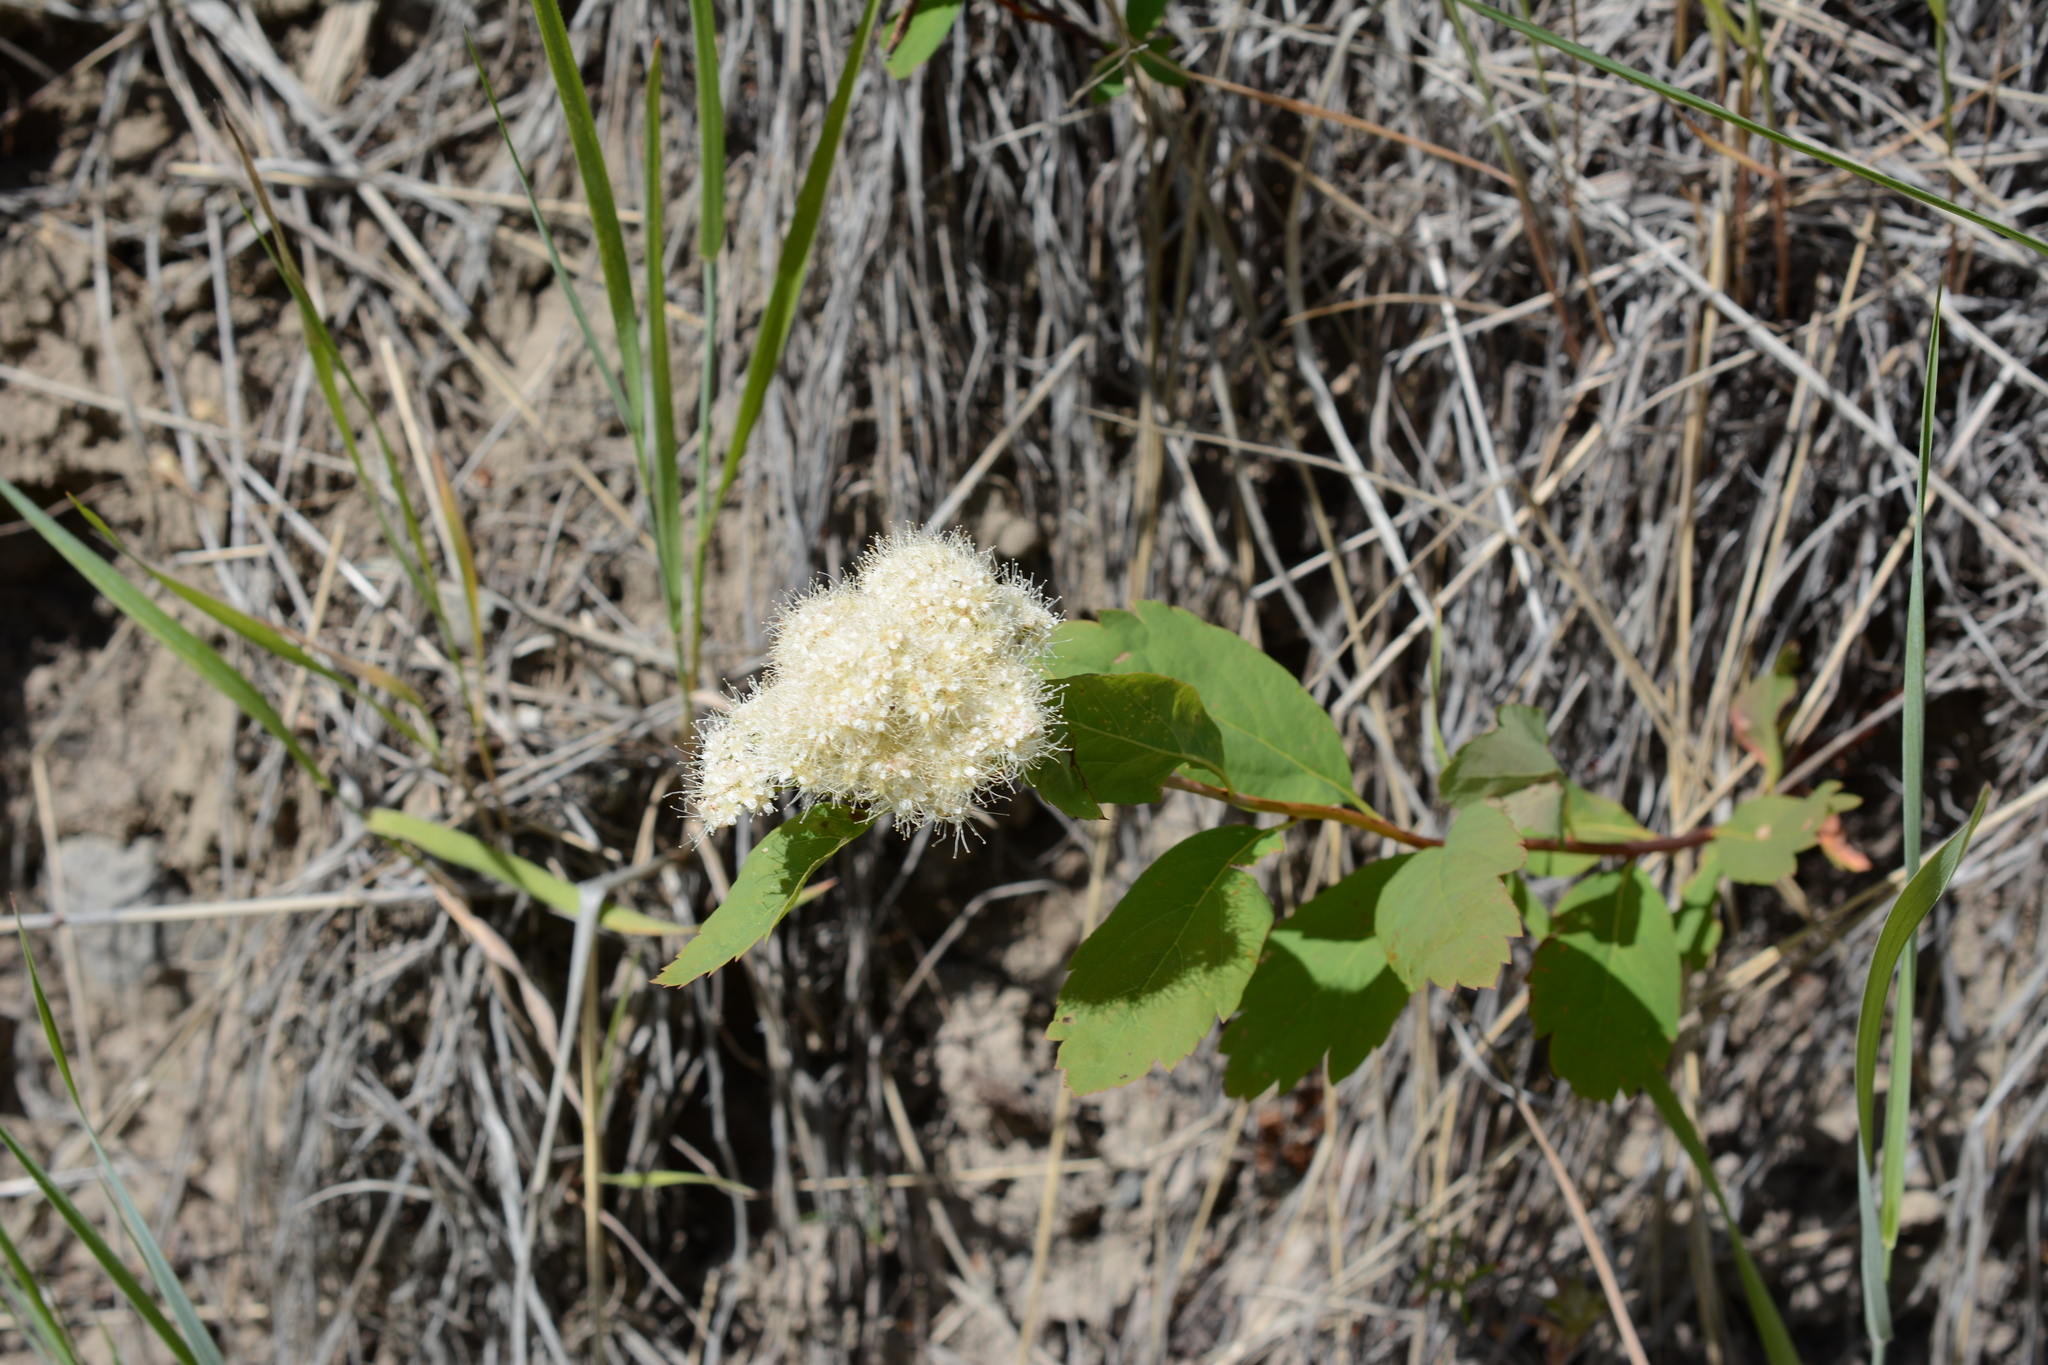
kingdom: Plantae
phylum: Tracheophyta
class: Magnoliopsida
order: Rosales
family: Rosaceae
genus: Spiraea
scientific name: Spiraea lucida
